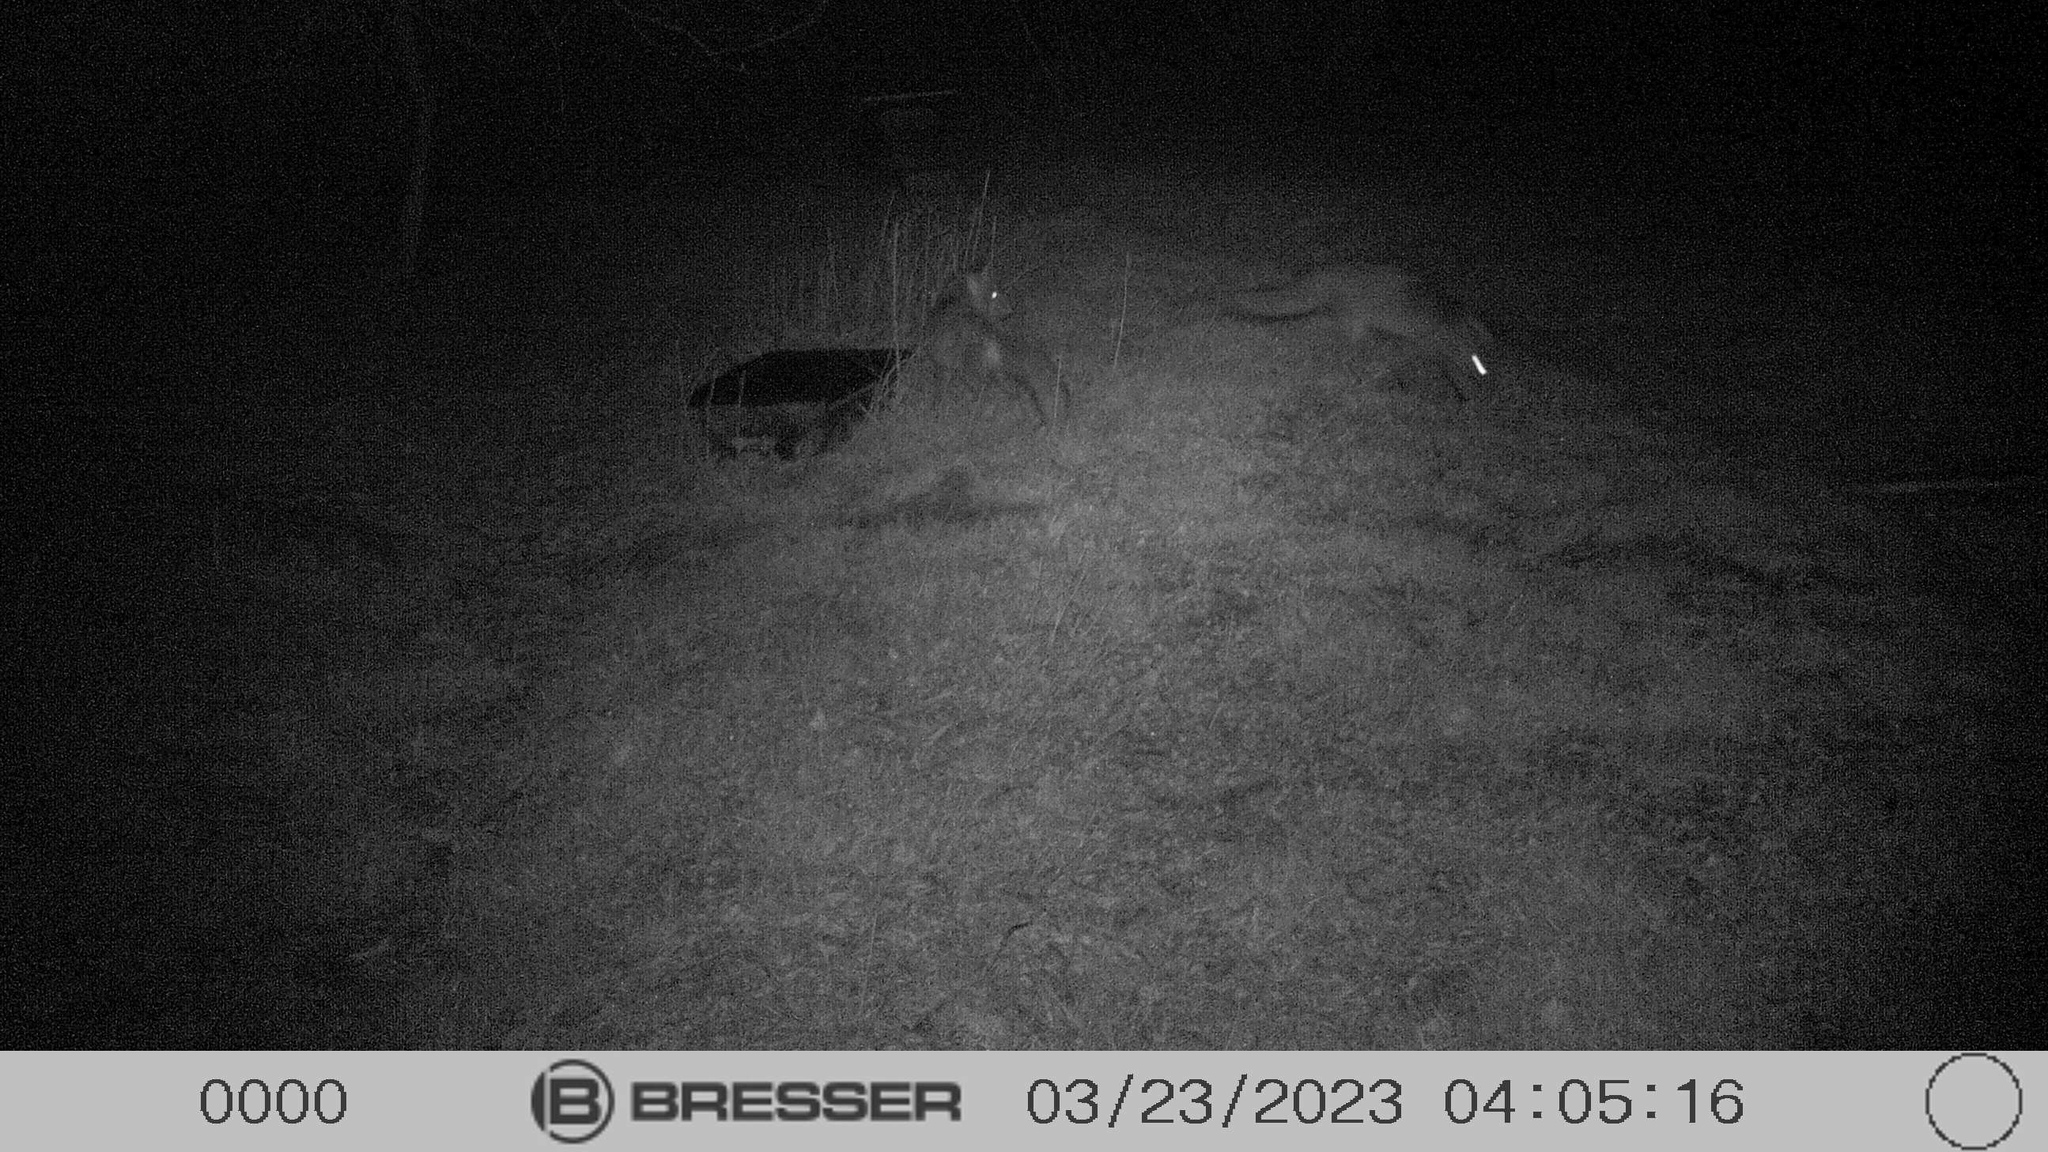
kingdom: Animalia
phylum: Chordata
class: Mammalia
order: Carnivora
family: Canidae
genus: Vulpes
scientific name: Vulpes vulpes
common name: Red fox
